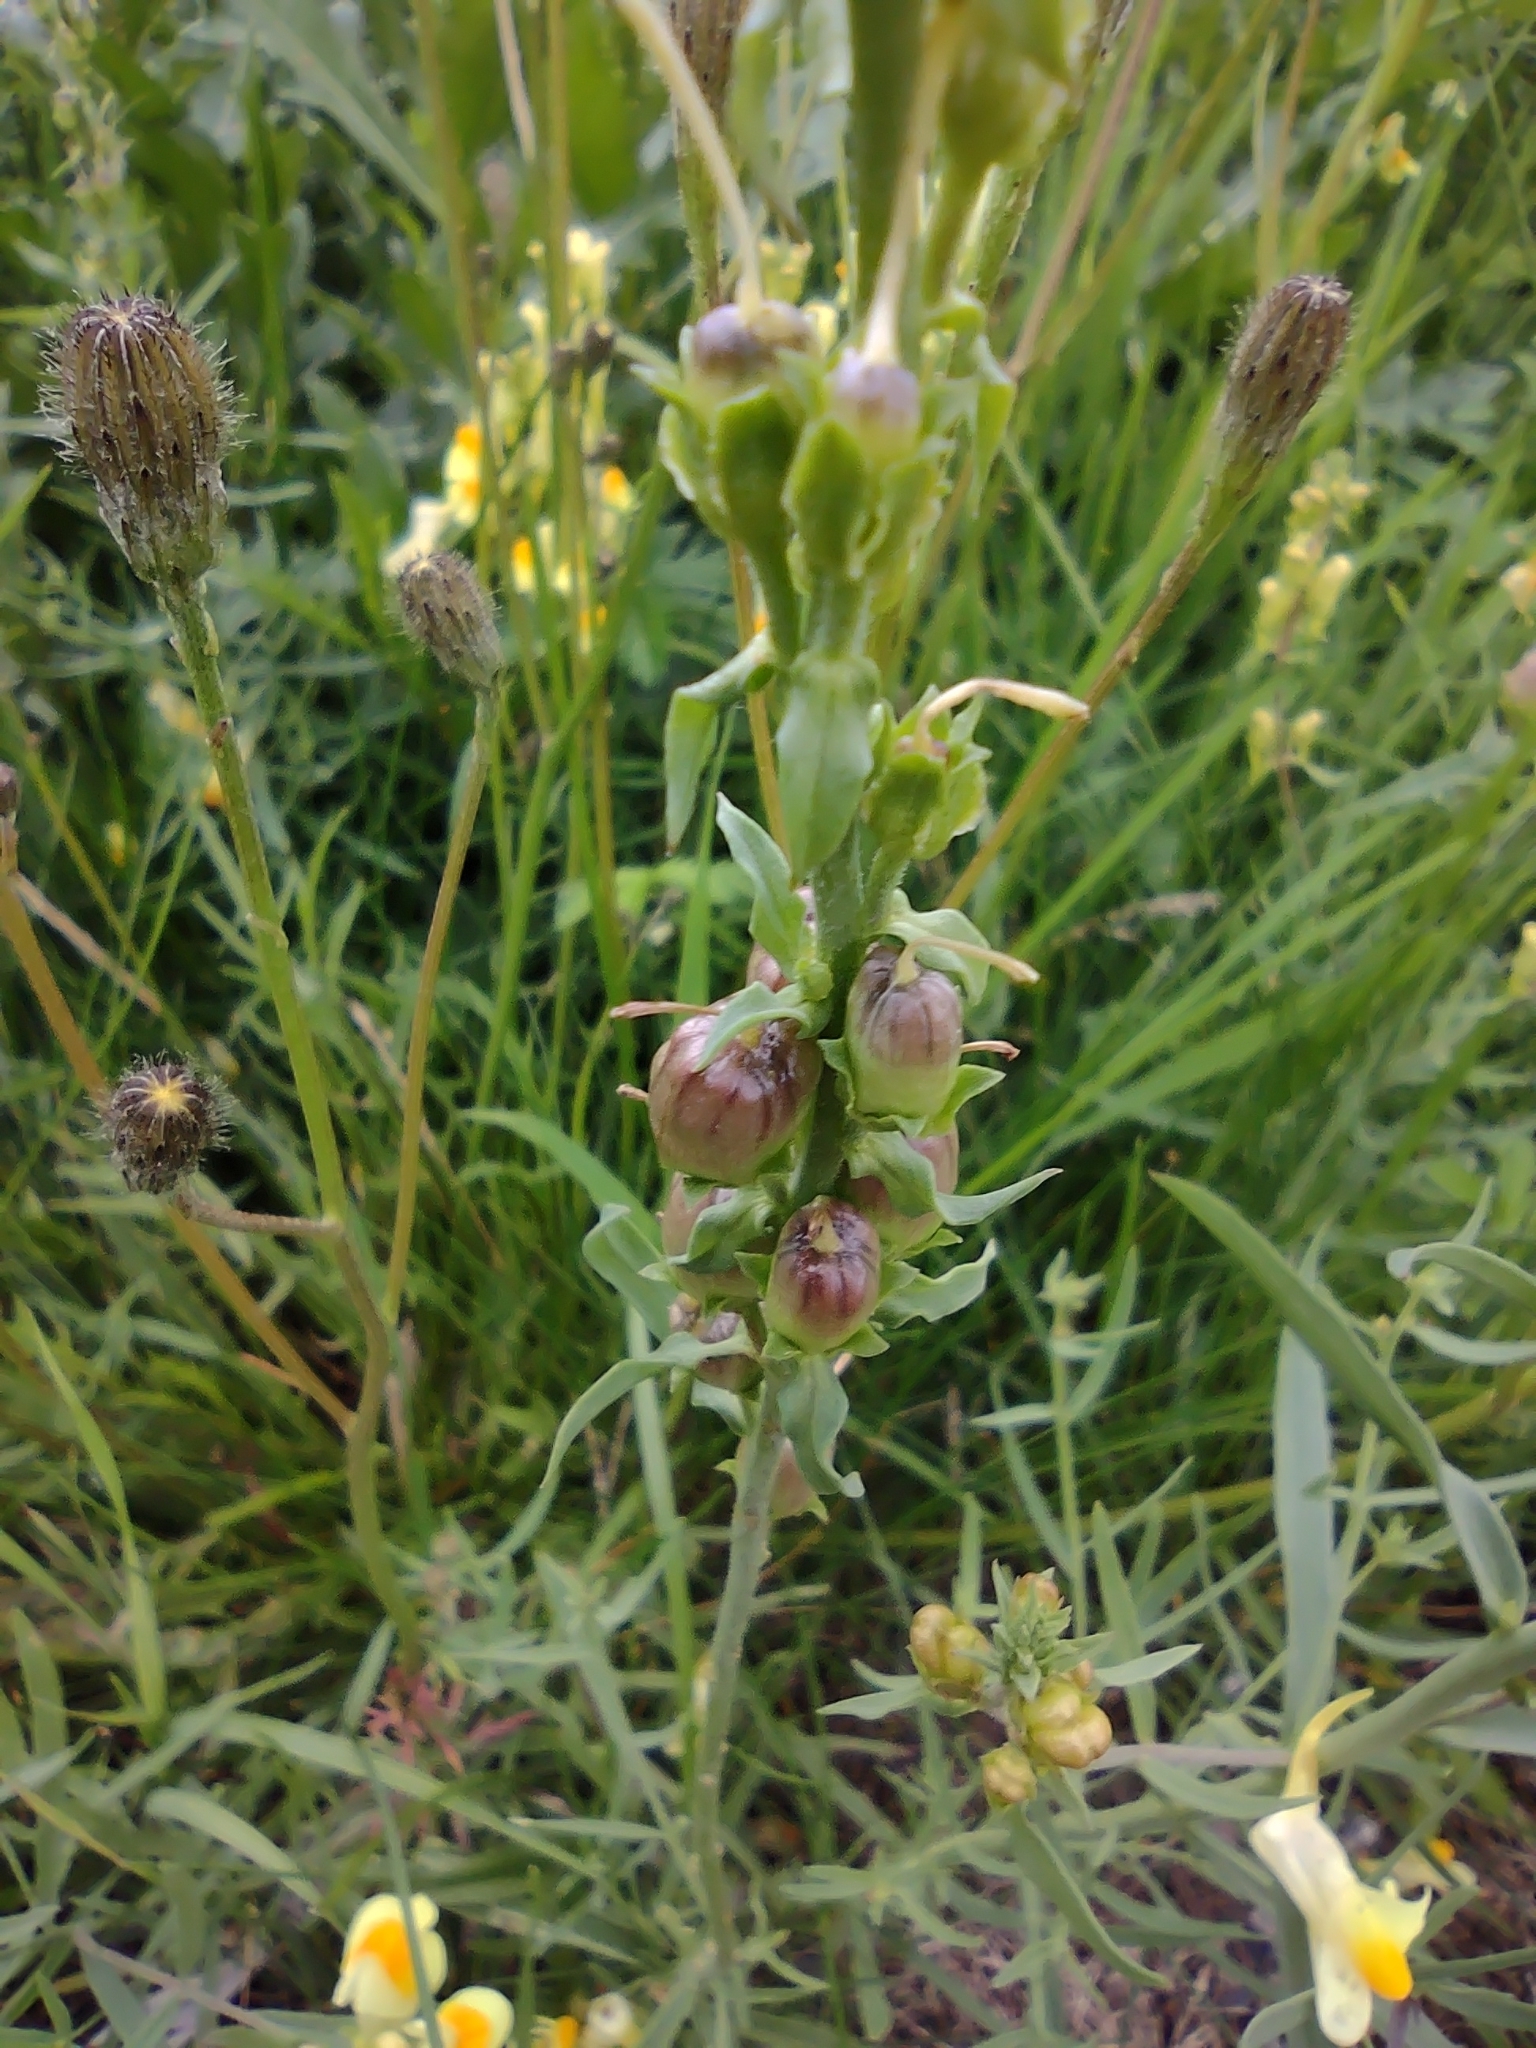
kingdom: Plantae
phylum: Tracheophyta
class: Magnoliopsida
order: Lamiales
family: Plantaginaceae
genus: Linaria
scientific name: Linaria vulgaris
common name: Butter and eggs
